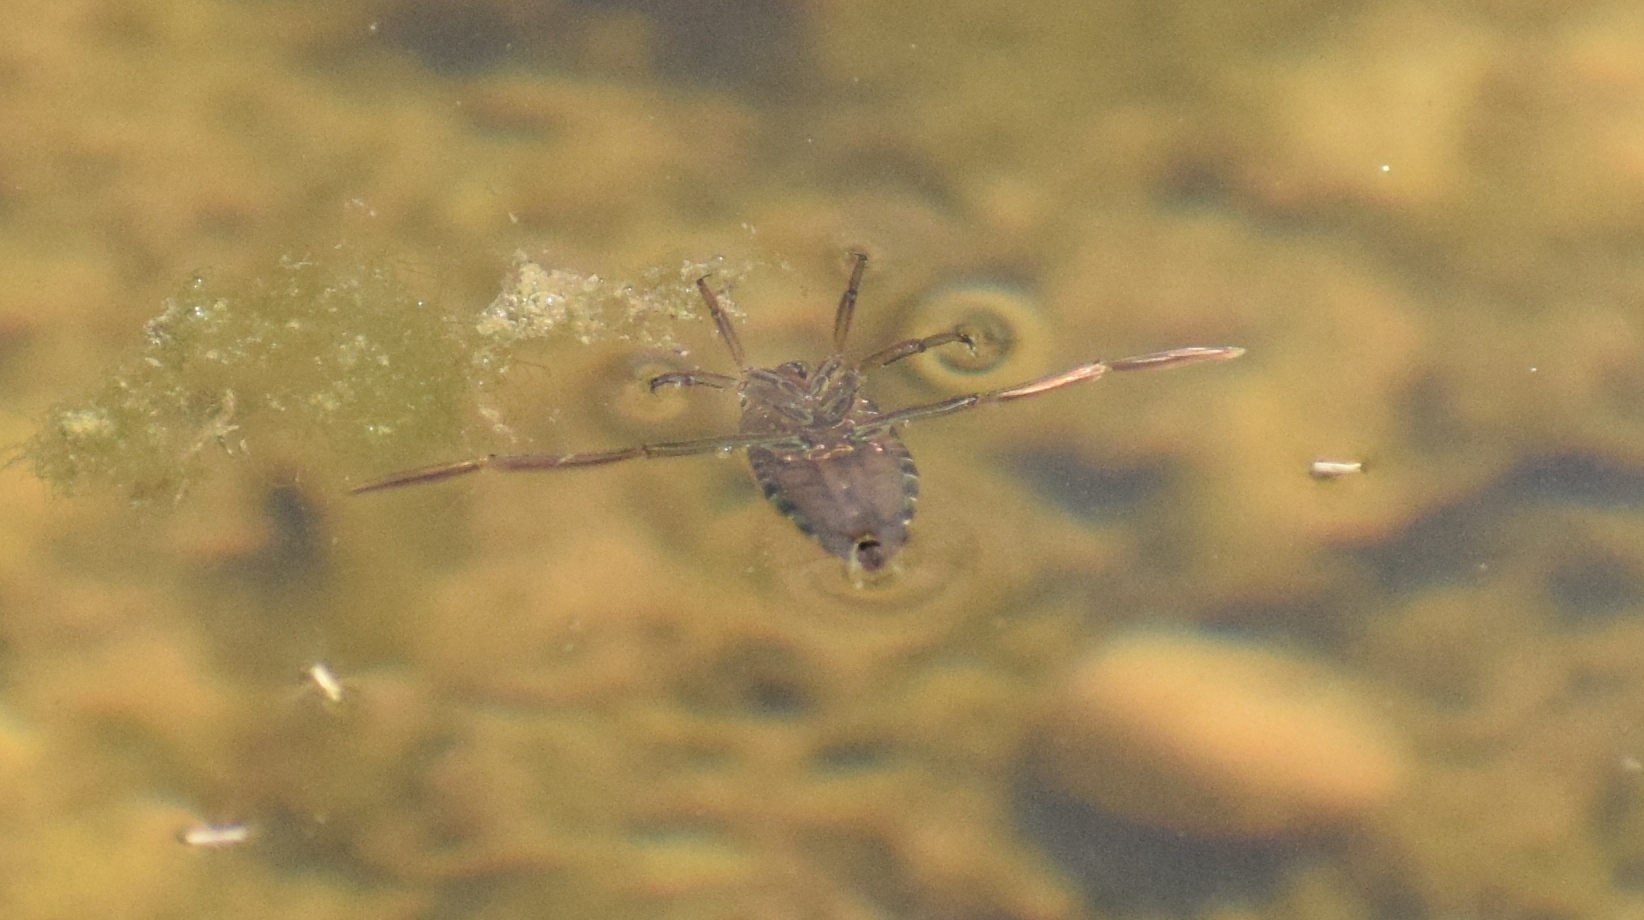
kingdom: Animalia
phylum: Arthropoda
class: Insecta
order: Hemiptera
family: Notonectidae
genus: Notonecta
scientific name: Notonecta
